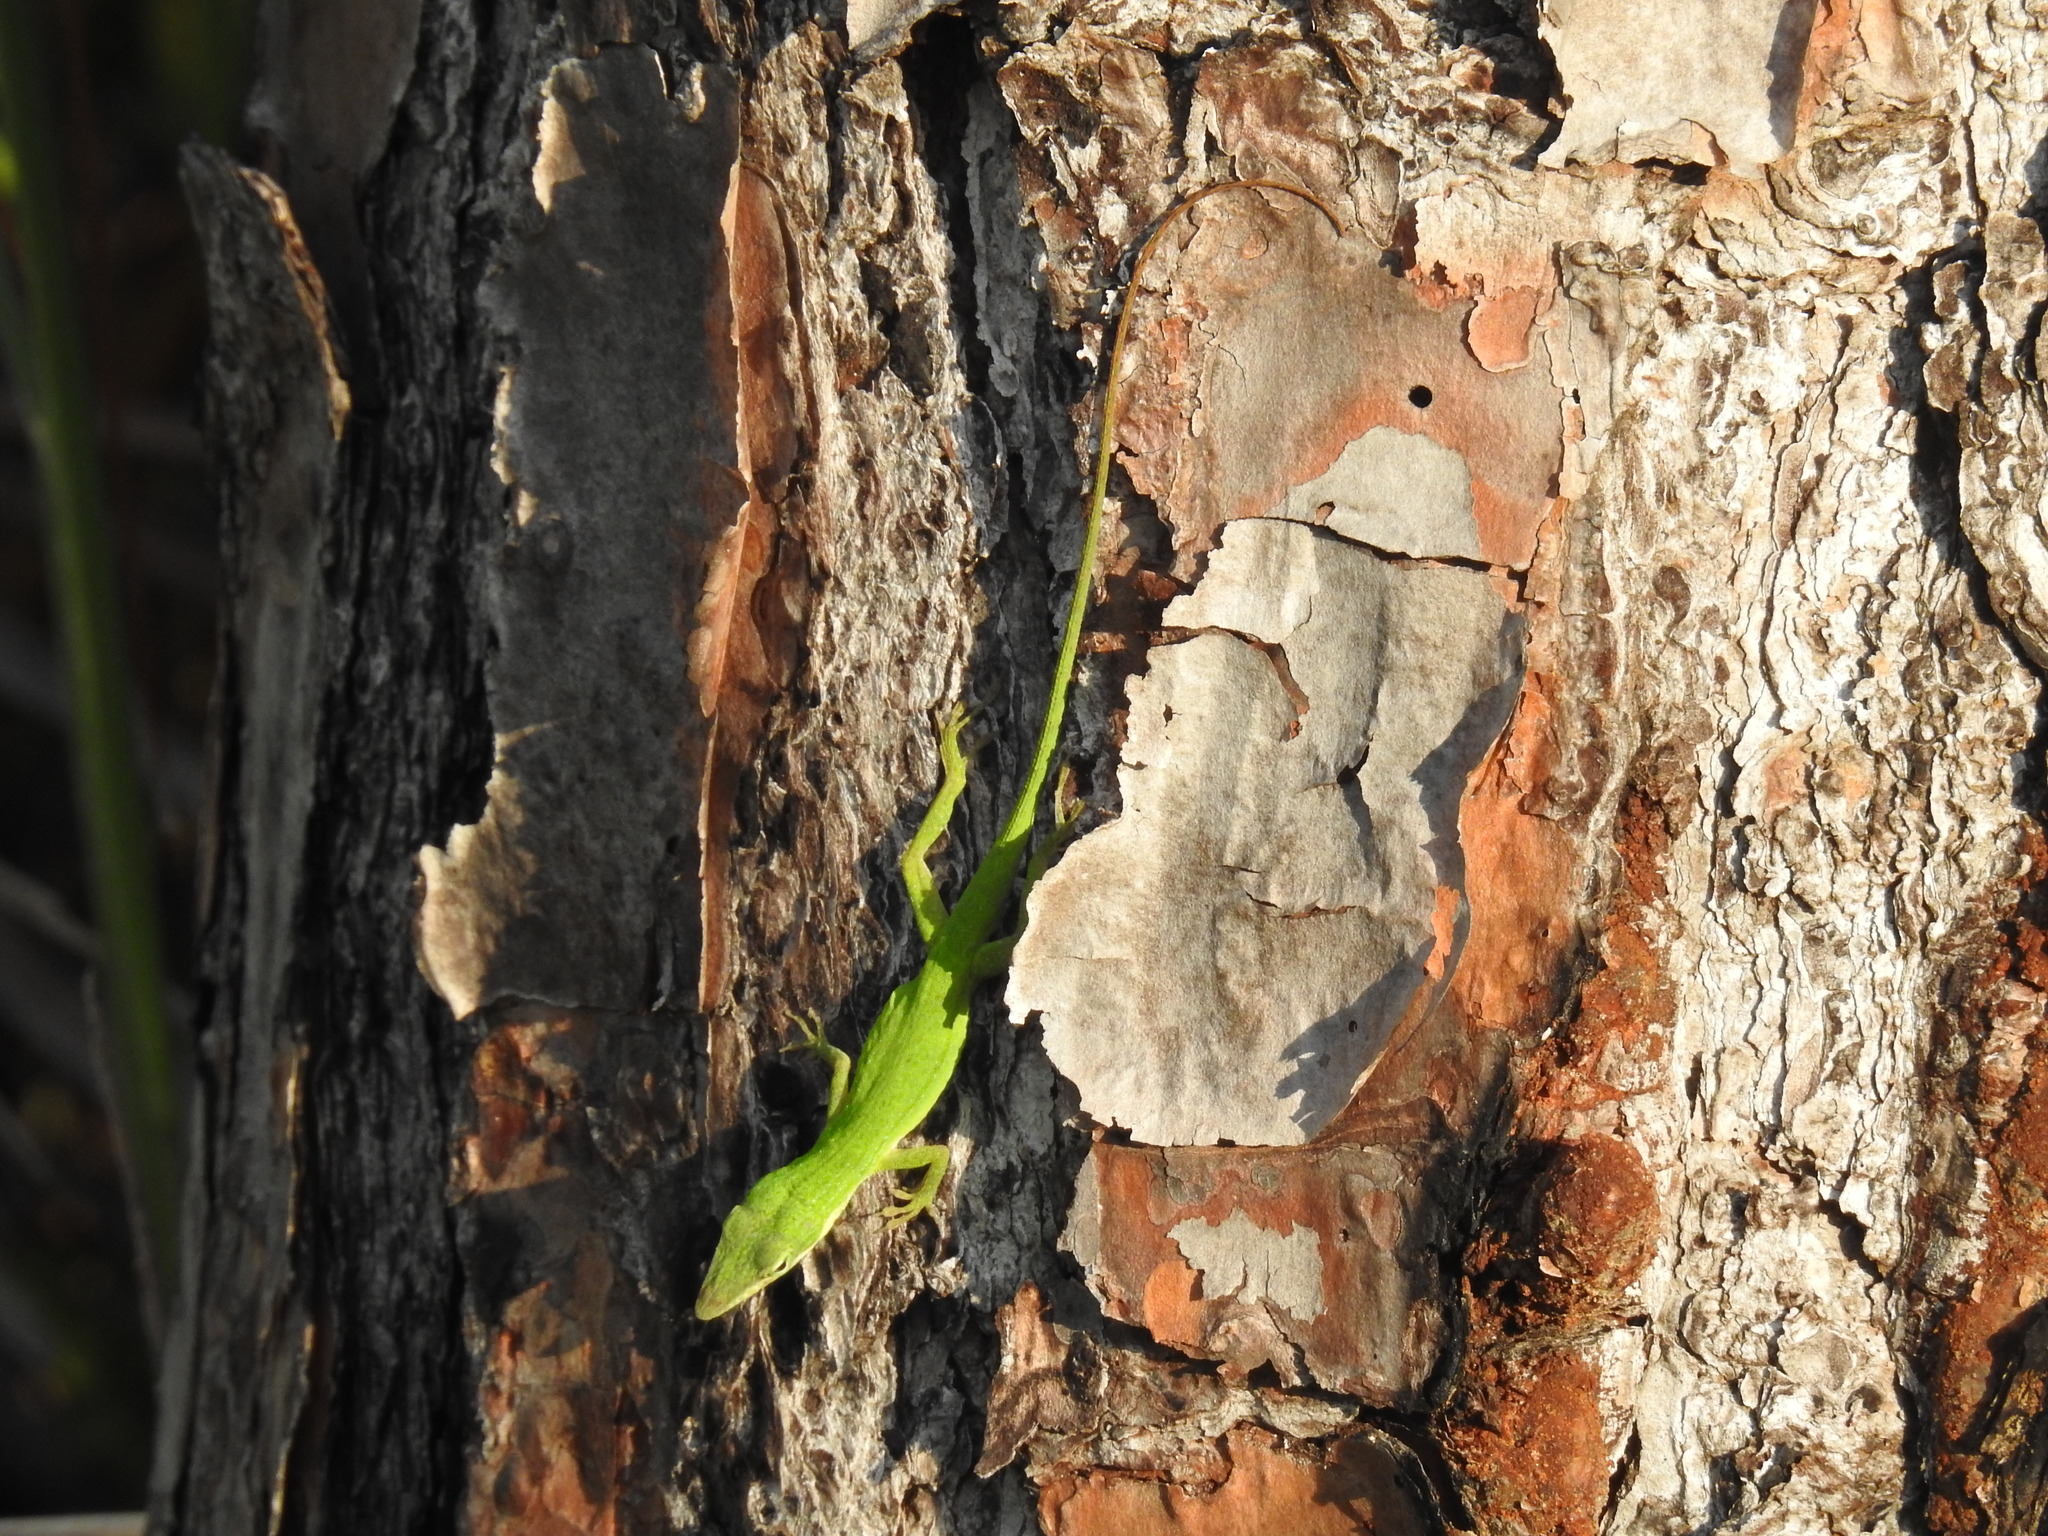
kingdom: Animalia
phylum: Chordata
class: Squamata
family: Dactyloidae
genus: Anolis
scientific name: Anolis carolinensis
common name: Green anole
